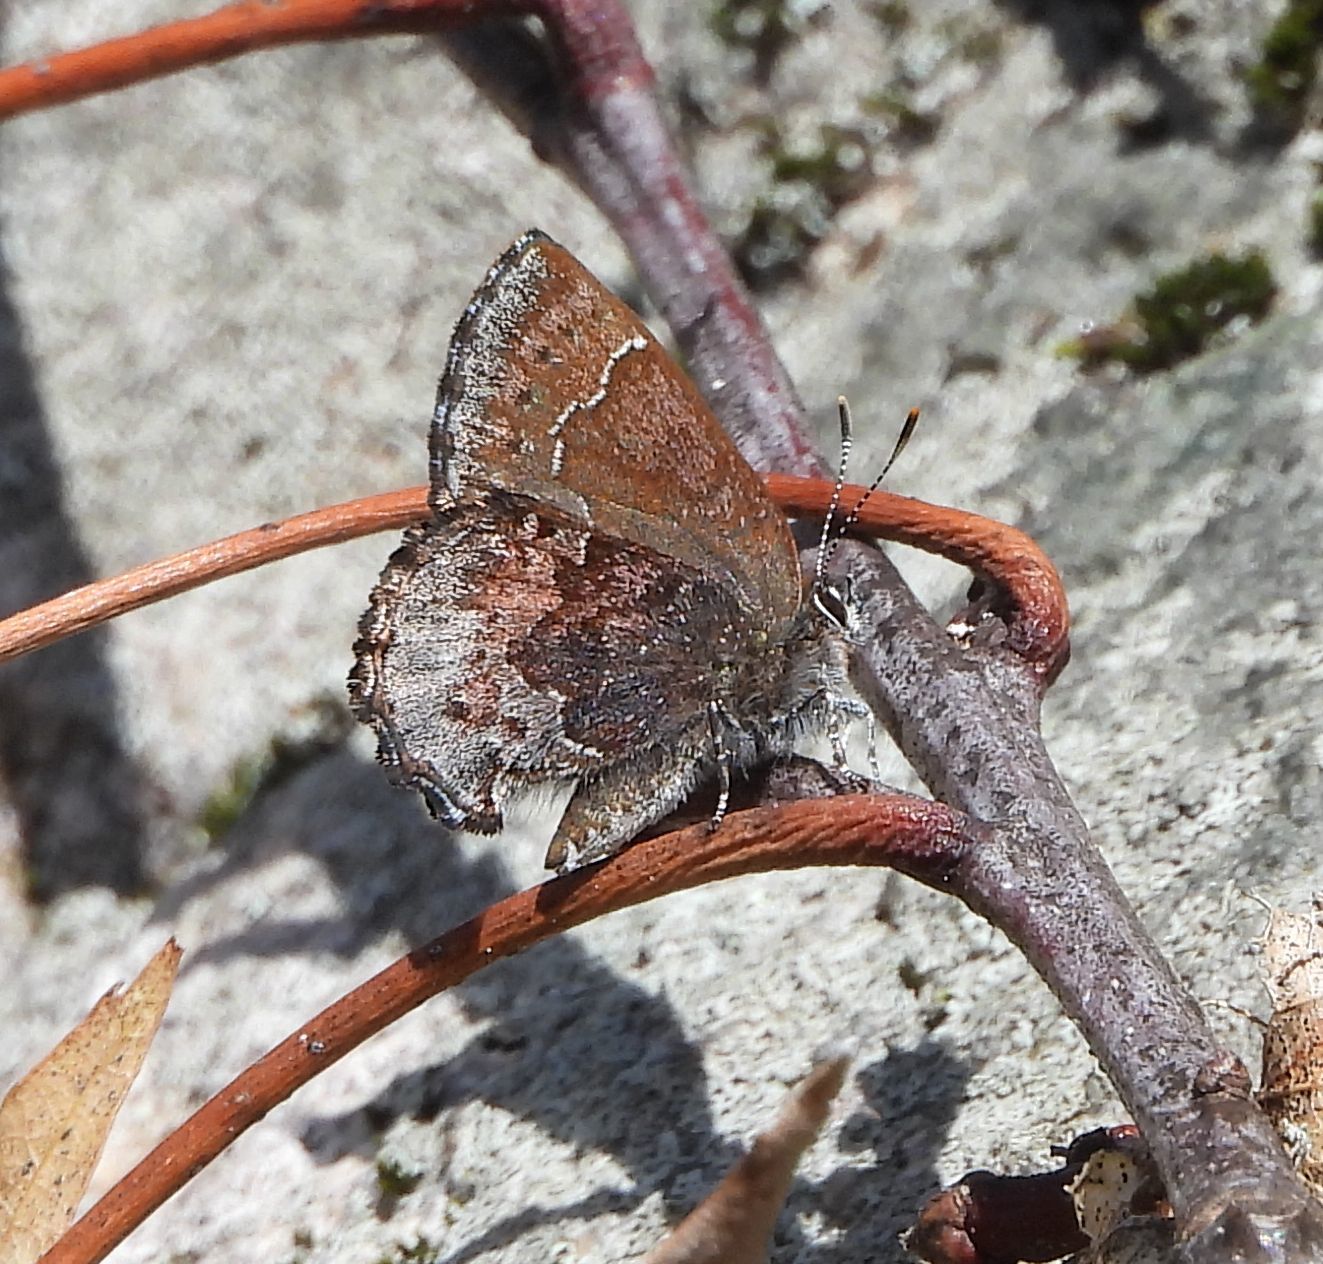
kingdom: Animalia
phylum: Arthropoda
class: Insecta
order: Lepidoptera
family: Lycaenidae
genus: Callophrys
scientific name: Callophrys polios
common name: Hoary elfin
